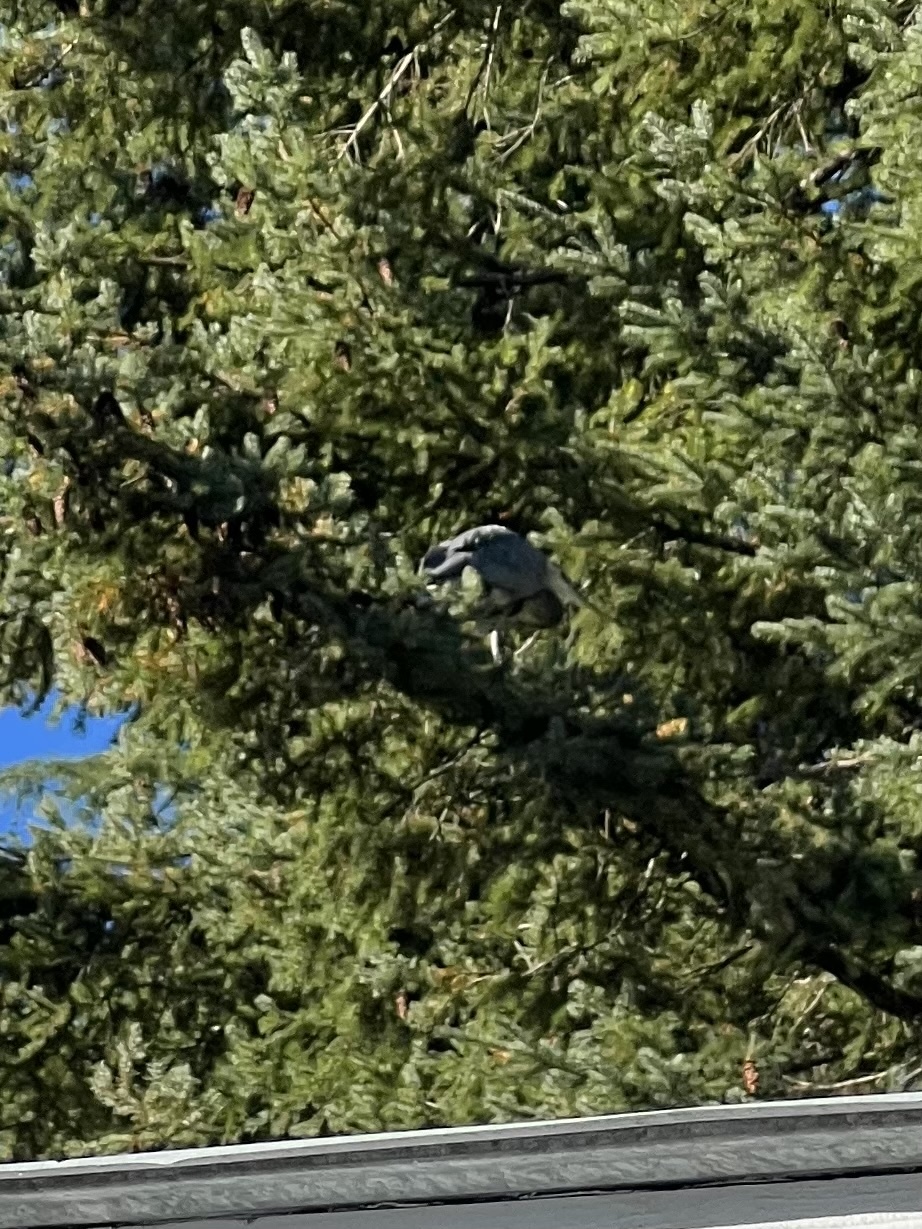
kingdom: Animalia
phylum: Chordata
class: Aves
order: Pelecaniformes
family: Ardeidae
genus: Ardea
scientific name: Ardea herodias
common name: Great blue heron
